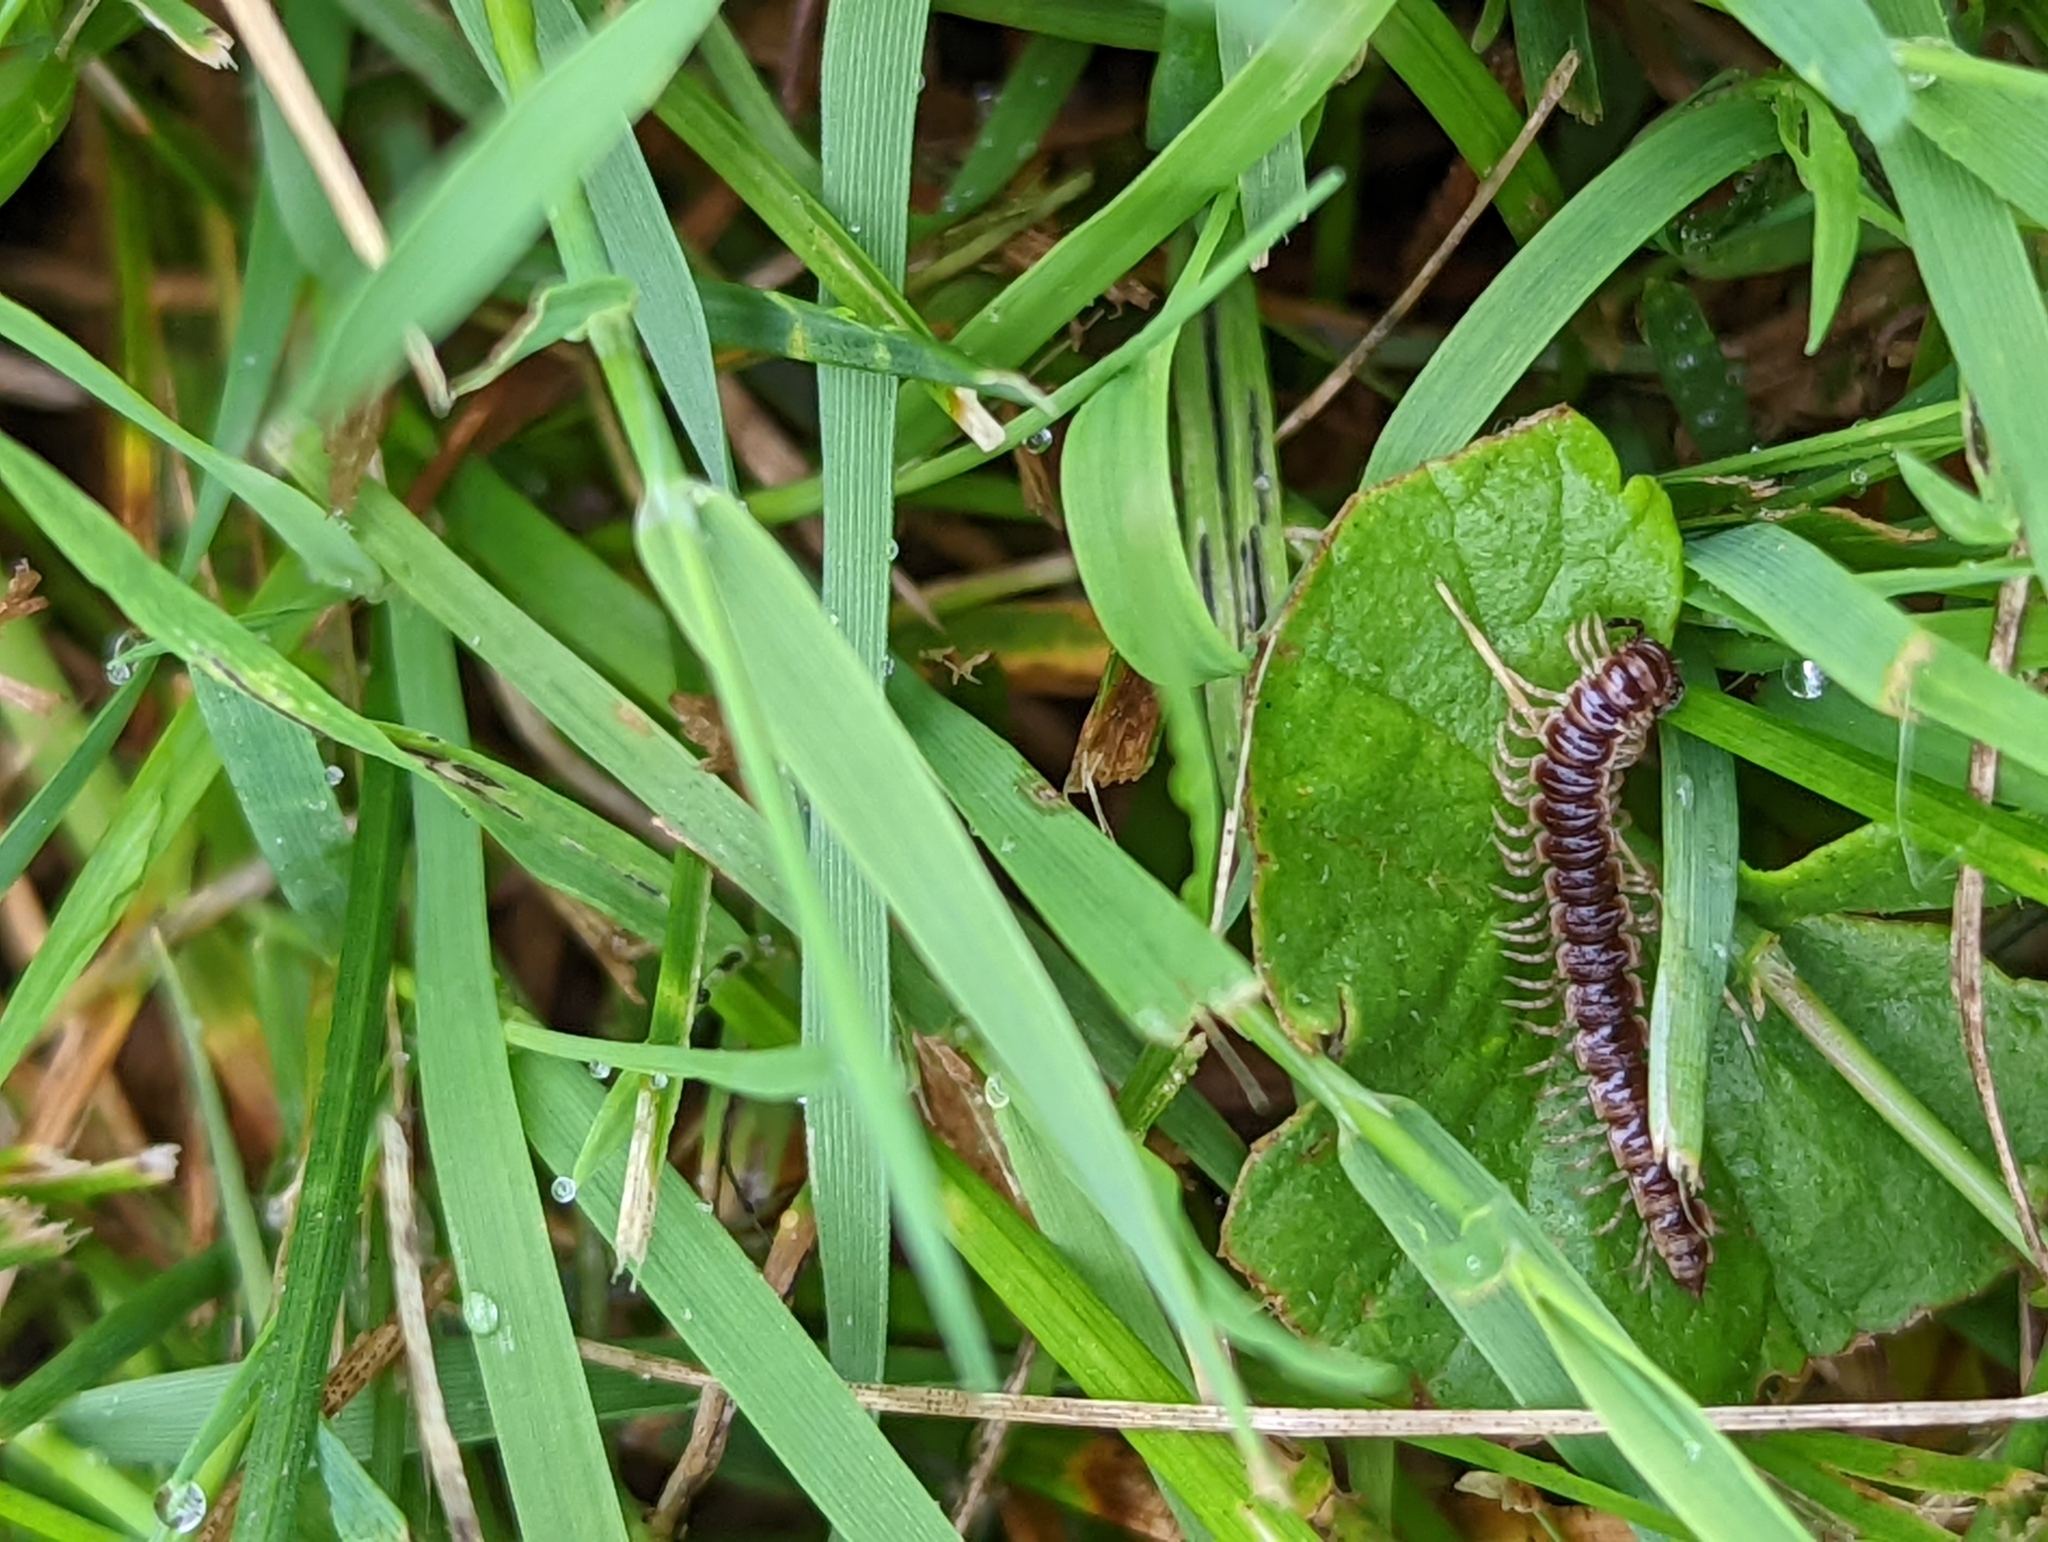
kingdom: Animalia
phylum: Arthropoda
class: Diplopoda
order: Polydesmida
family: Paradoxosomatidae
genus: Oxidus
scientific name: Oxidus gracilis
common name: Greenhouse millipede
